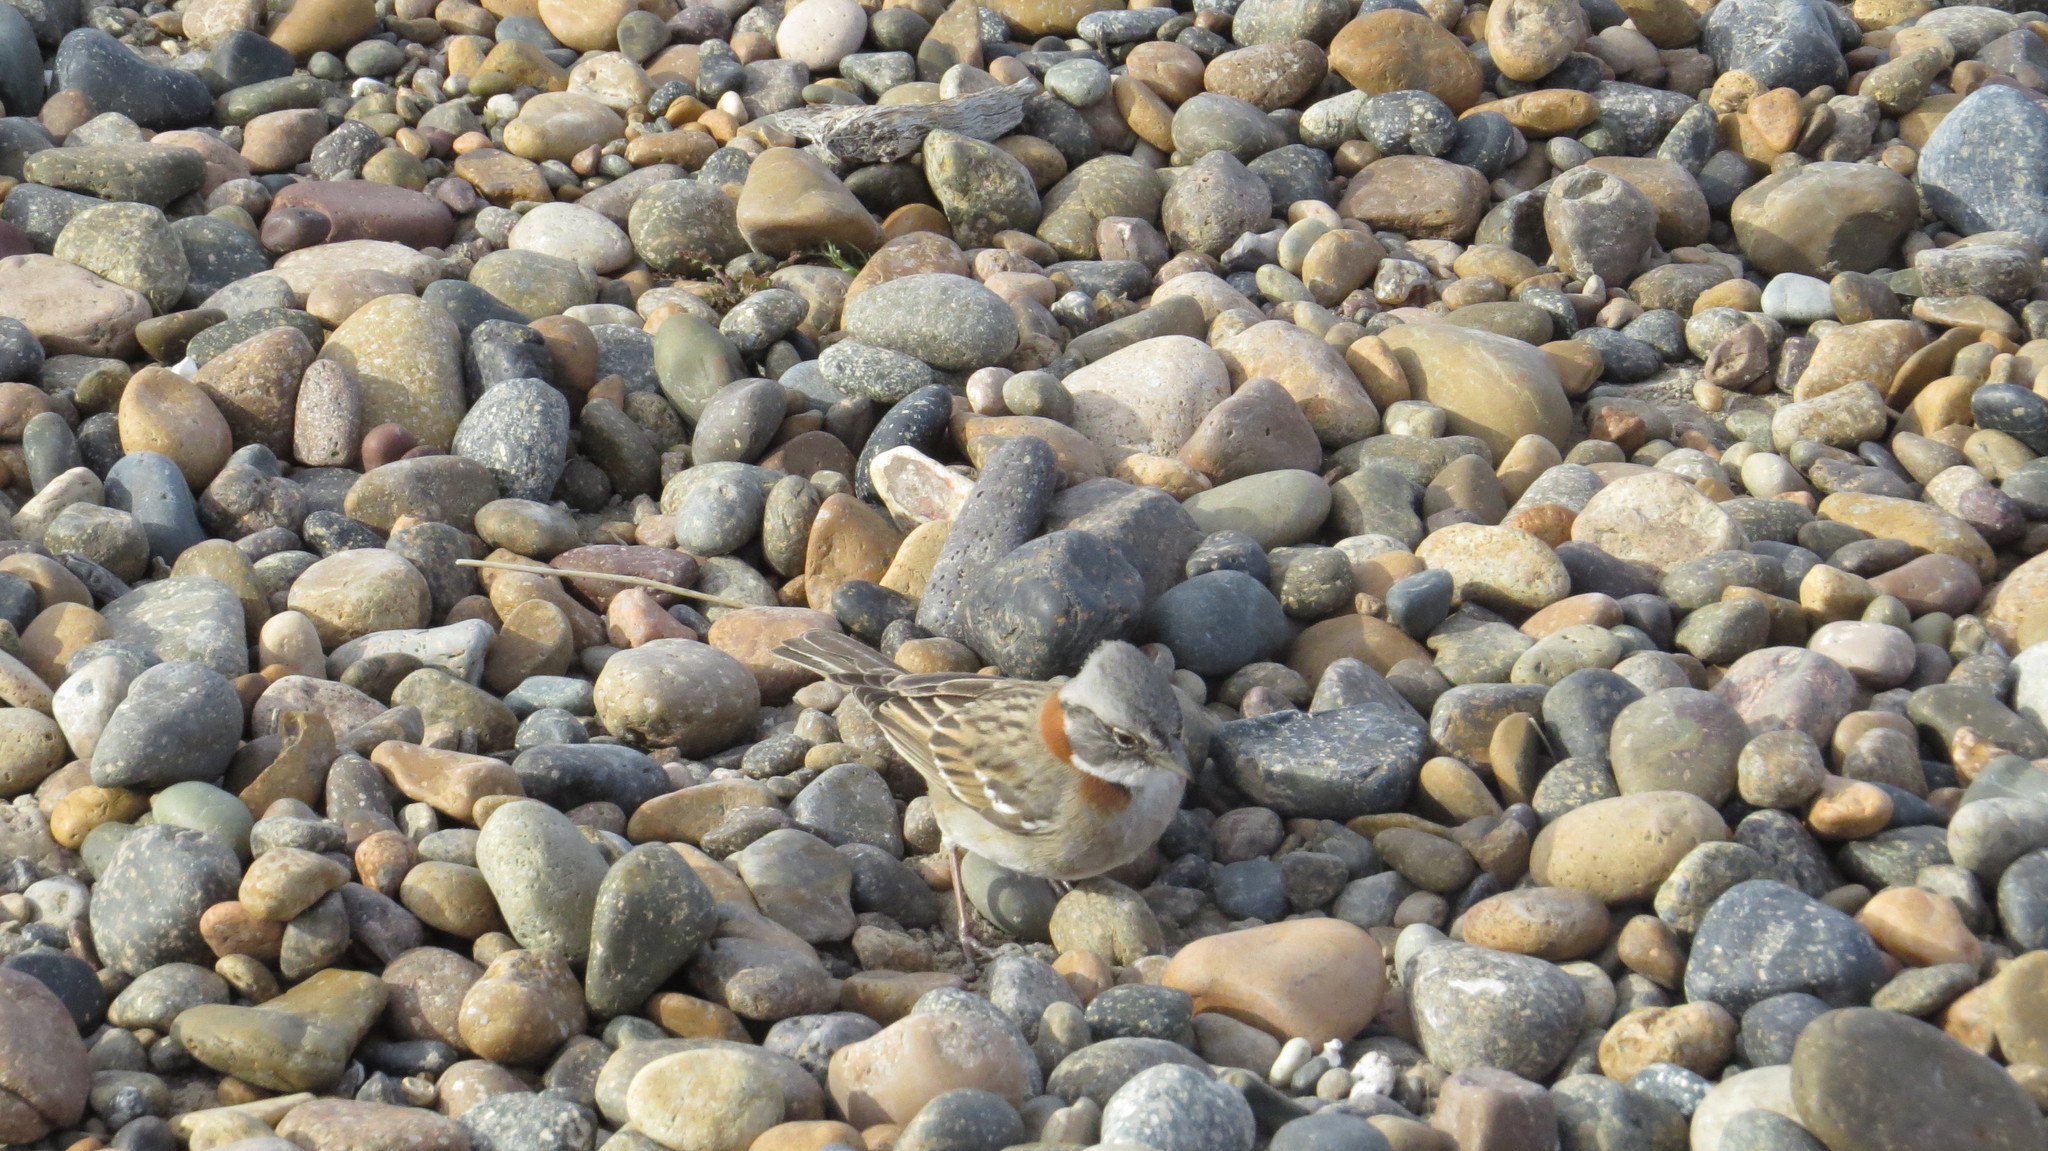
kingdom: Animalia
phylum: Chordata
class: Aves
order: Passeriformes
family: Passerellidae
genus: Zonotrichia
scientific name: Zonotrichia capensis
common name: Rufous-collared sparrow
